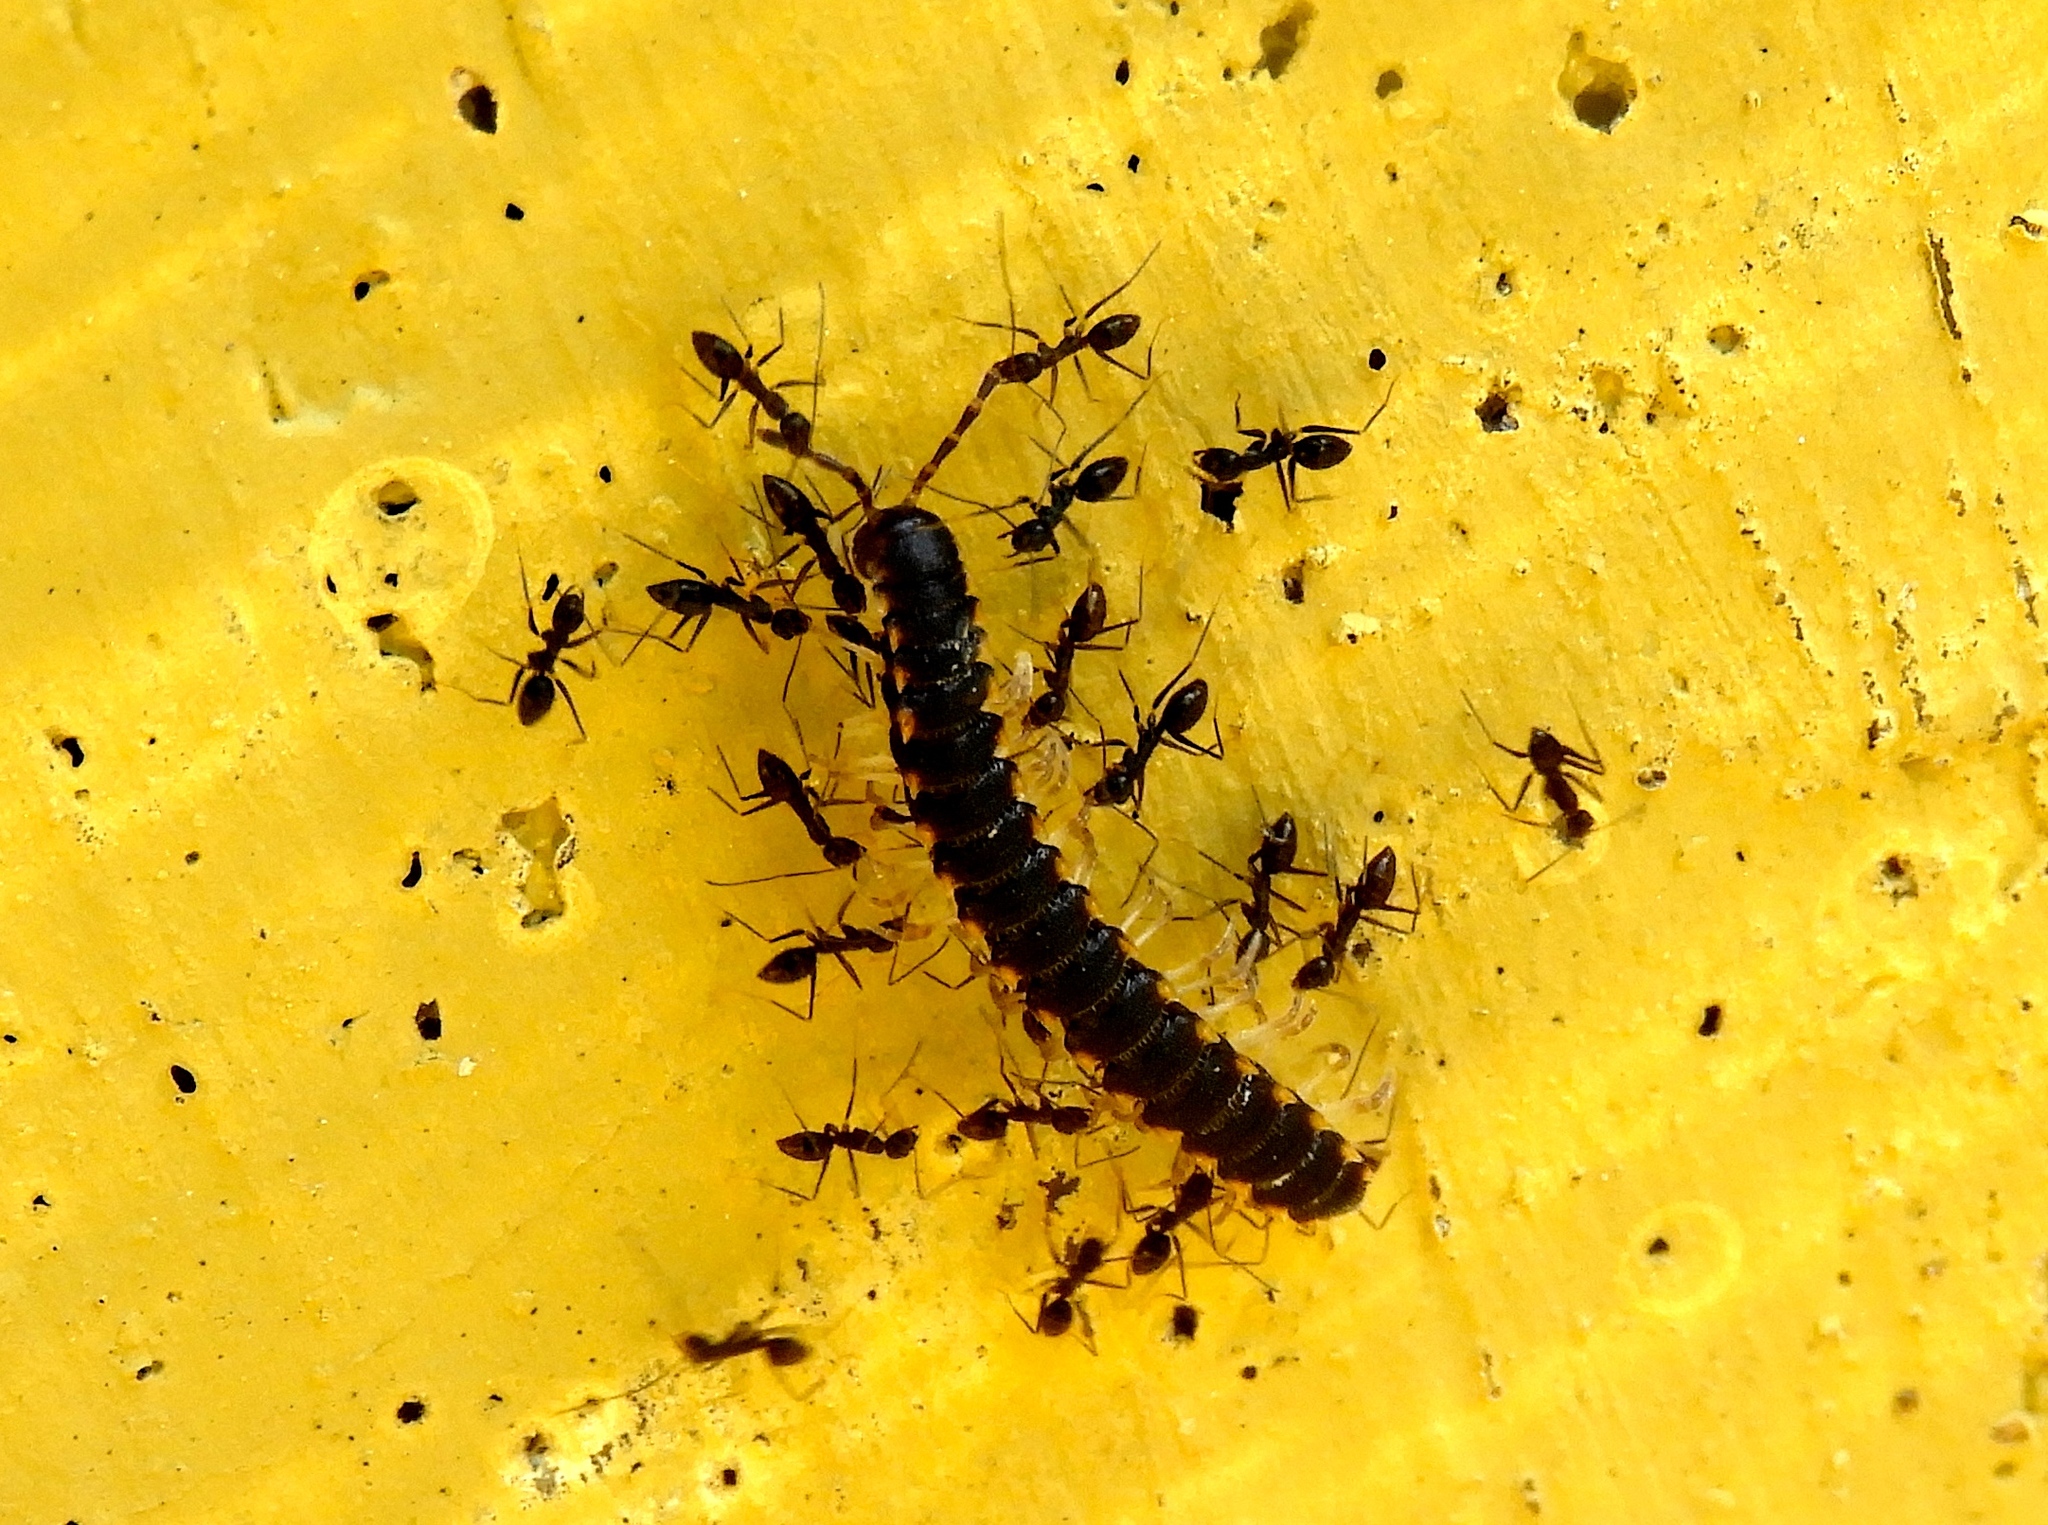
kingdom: Animalia
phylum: Arthropoda
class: Insecta
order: Hymenoptera
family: Formicidae
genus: Paratrechina
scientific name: Paratrechina longicornis
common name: Longhorned crazy ant
